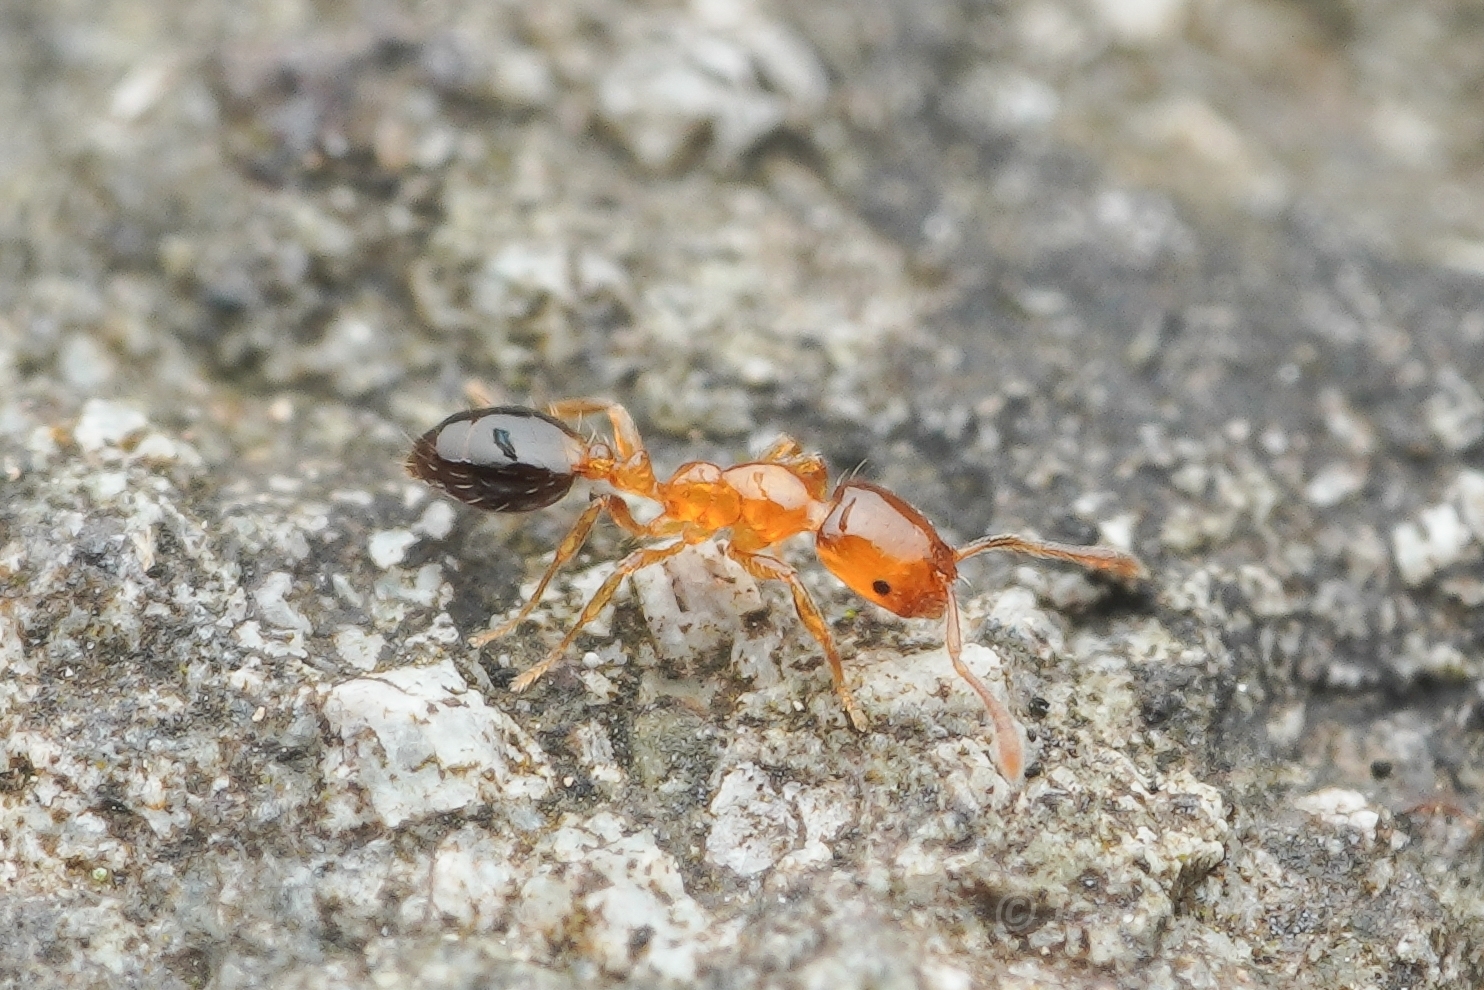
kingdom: Animalia
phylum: Arthropoda
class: Insecta
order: Hymenoptera
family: Formicidae
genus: Monomorium
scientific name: Monomorium intrudens
